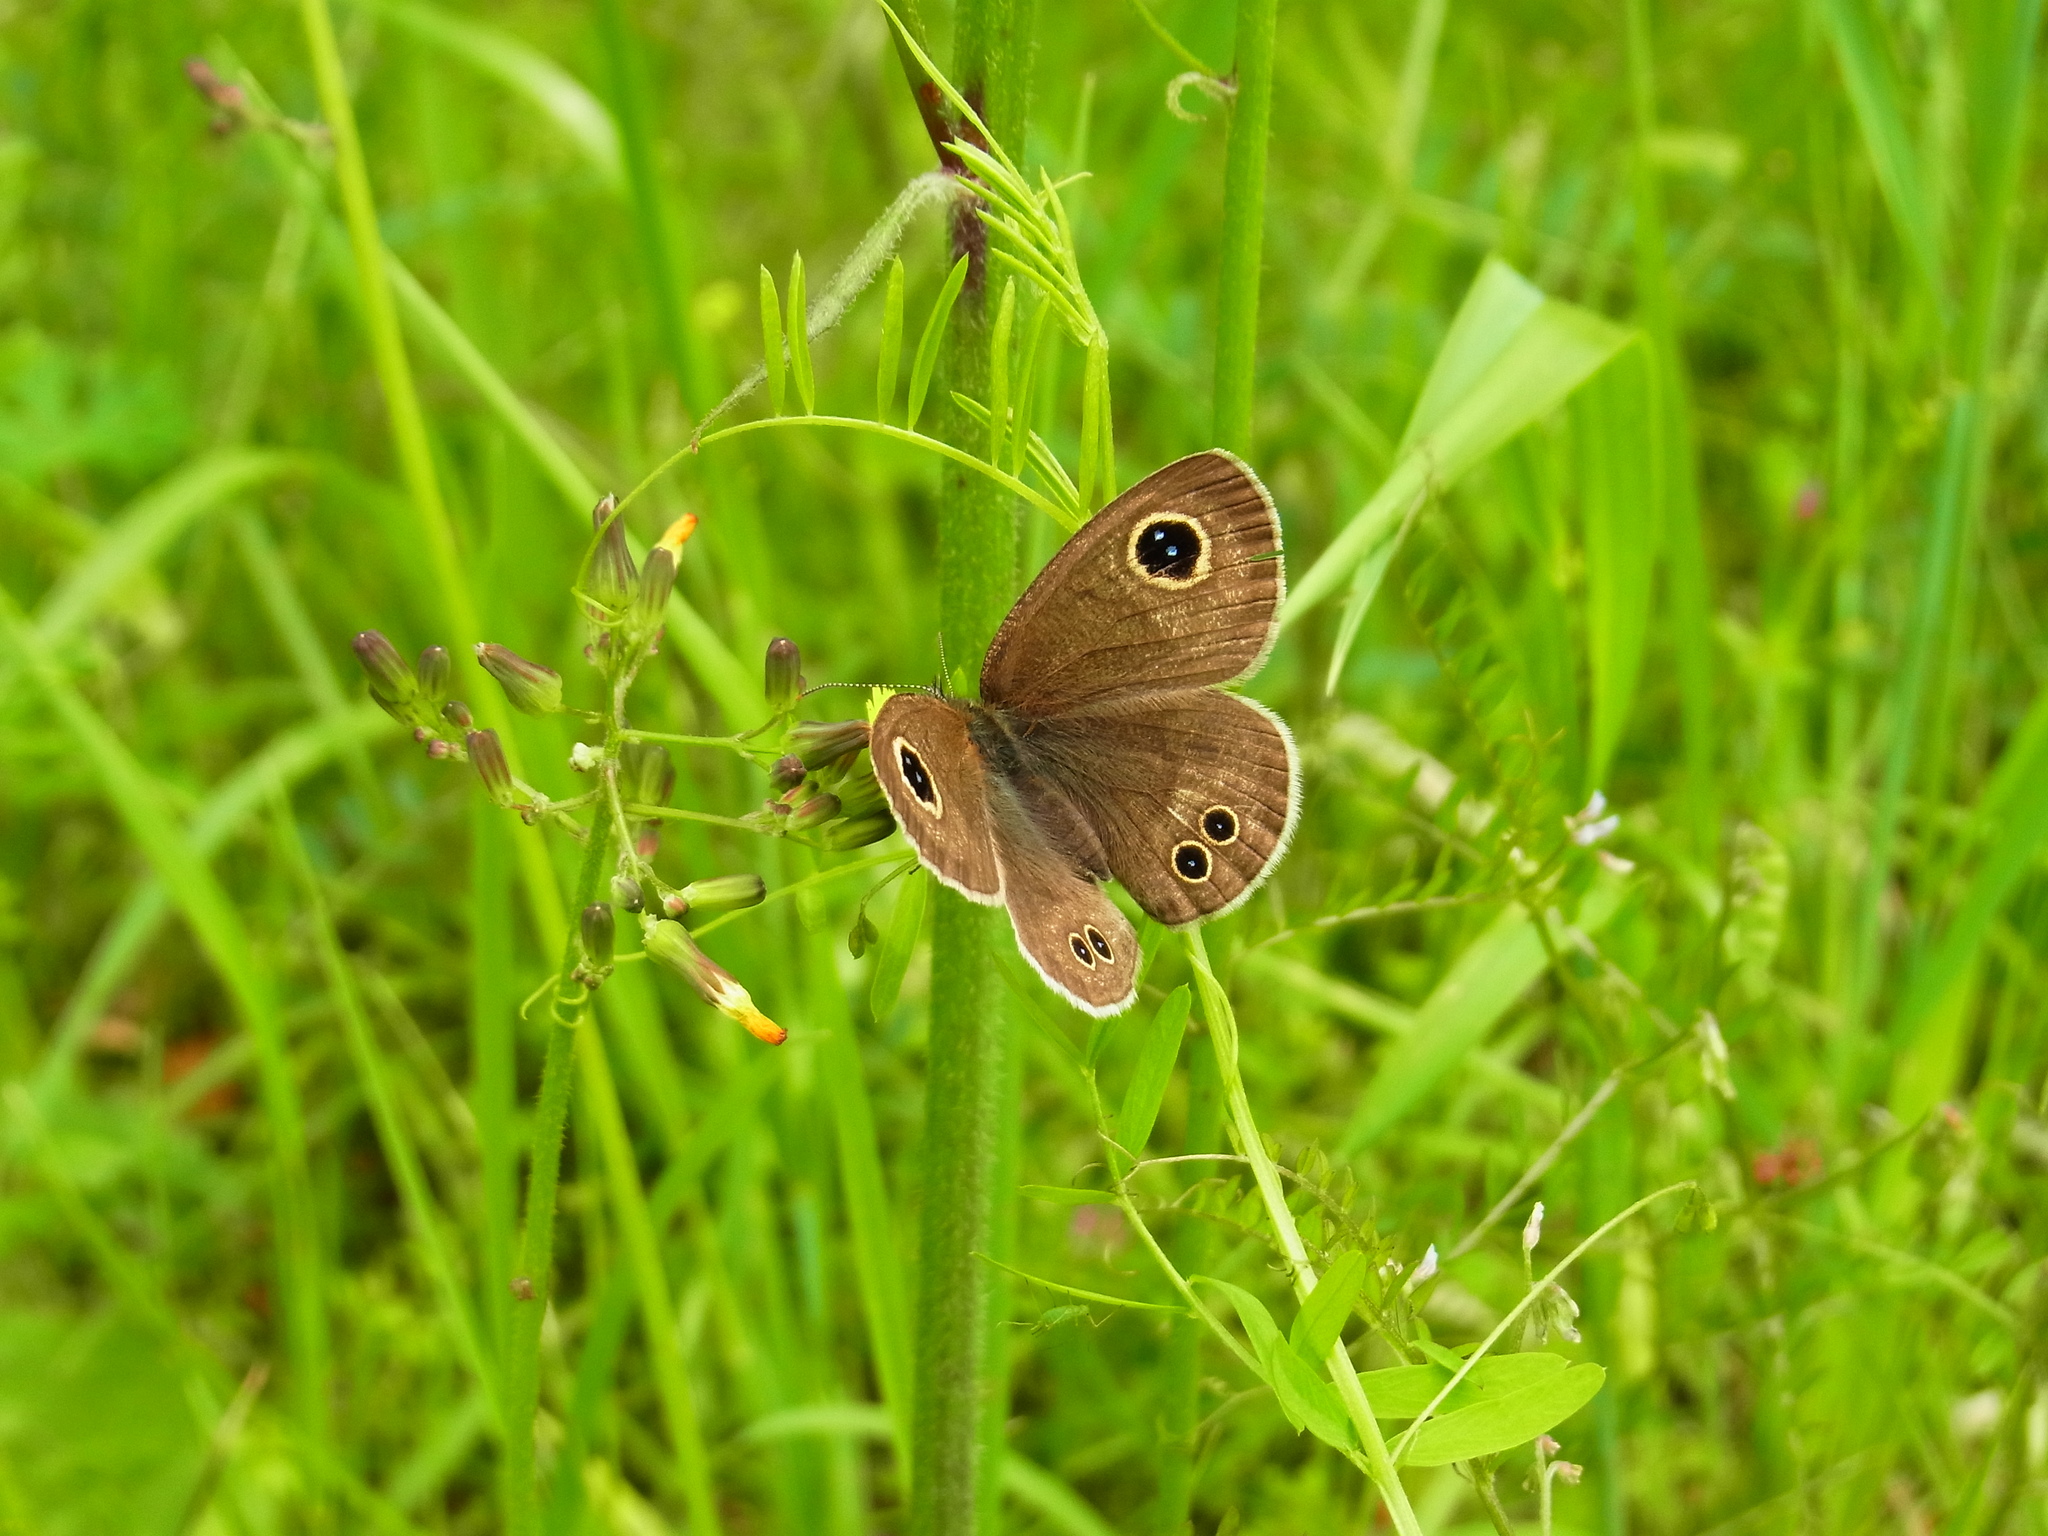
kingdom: Animalia
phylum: Arthropoda
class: Insecta
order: Lepidoptera
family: Nymphalidae
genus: Ypthima
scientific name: Ypthima argus
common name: Common fivering
